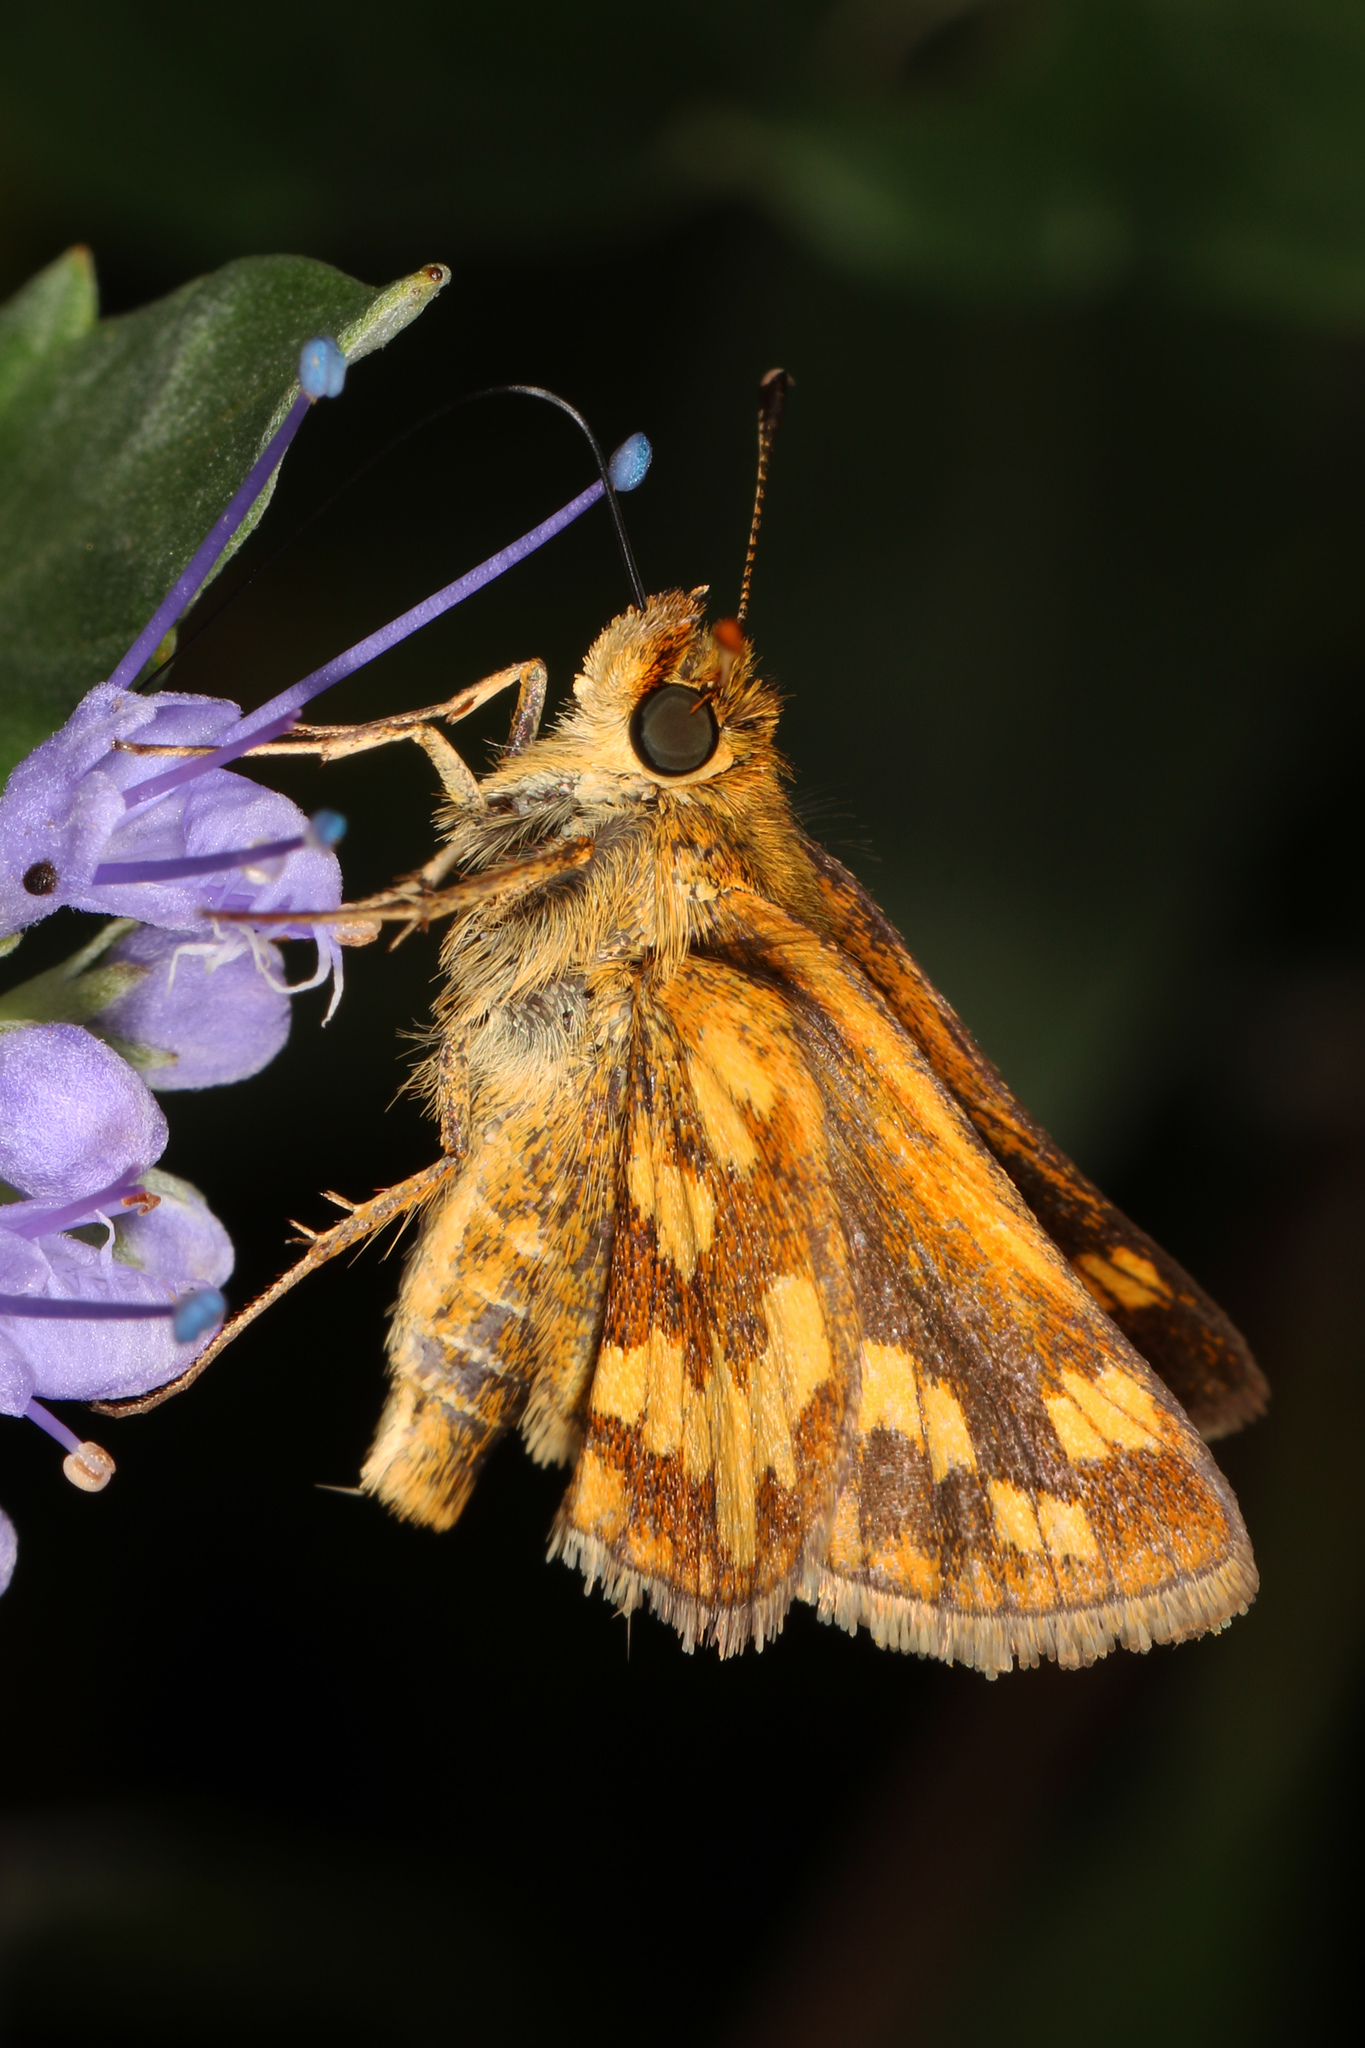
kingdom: Animalia
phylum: Arthropoda
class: Insecta
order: Lepidoptera
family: Hesperiidae
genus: Polites
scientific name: Polites coras
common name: Peck's skipper
